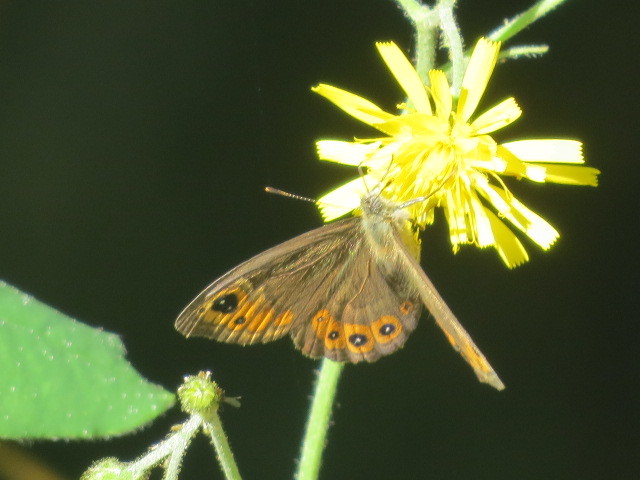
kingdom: Animalia
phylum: Arthropoda
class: Insecta
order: Lepidoptera
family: Nymphalidae
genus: Pararge
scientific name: Pararge petropolitana
